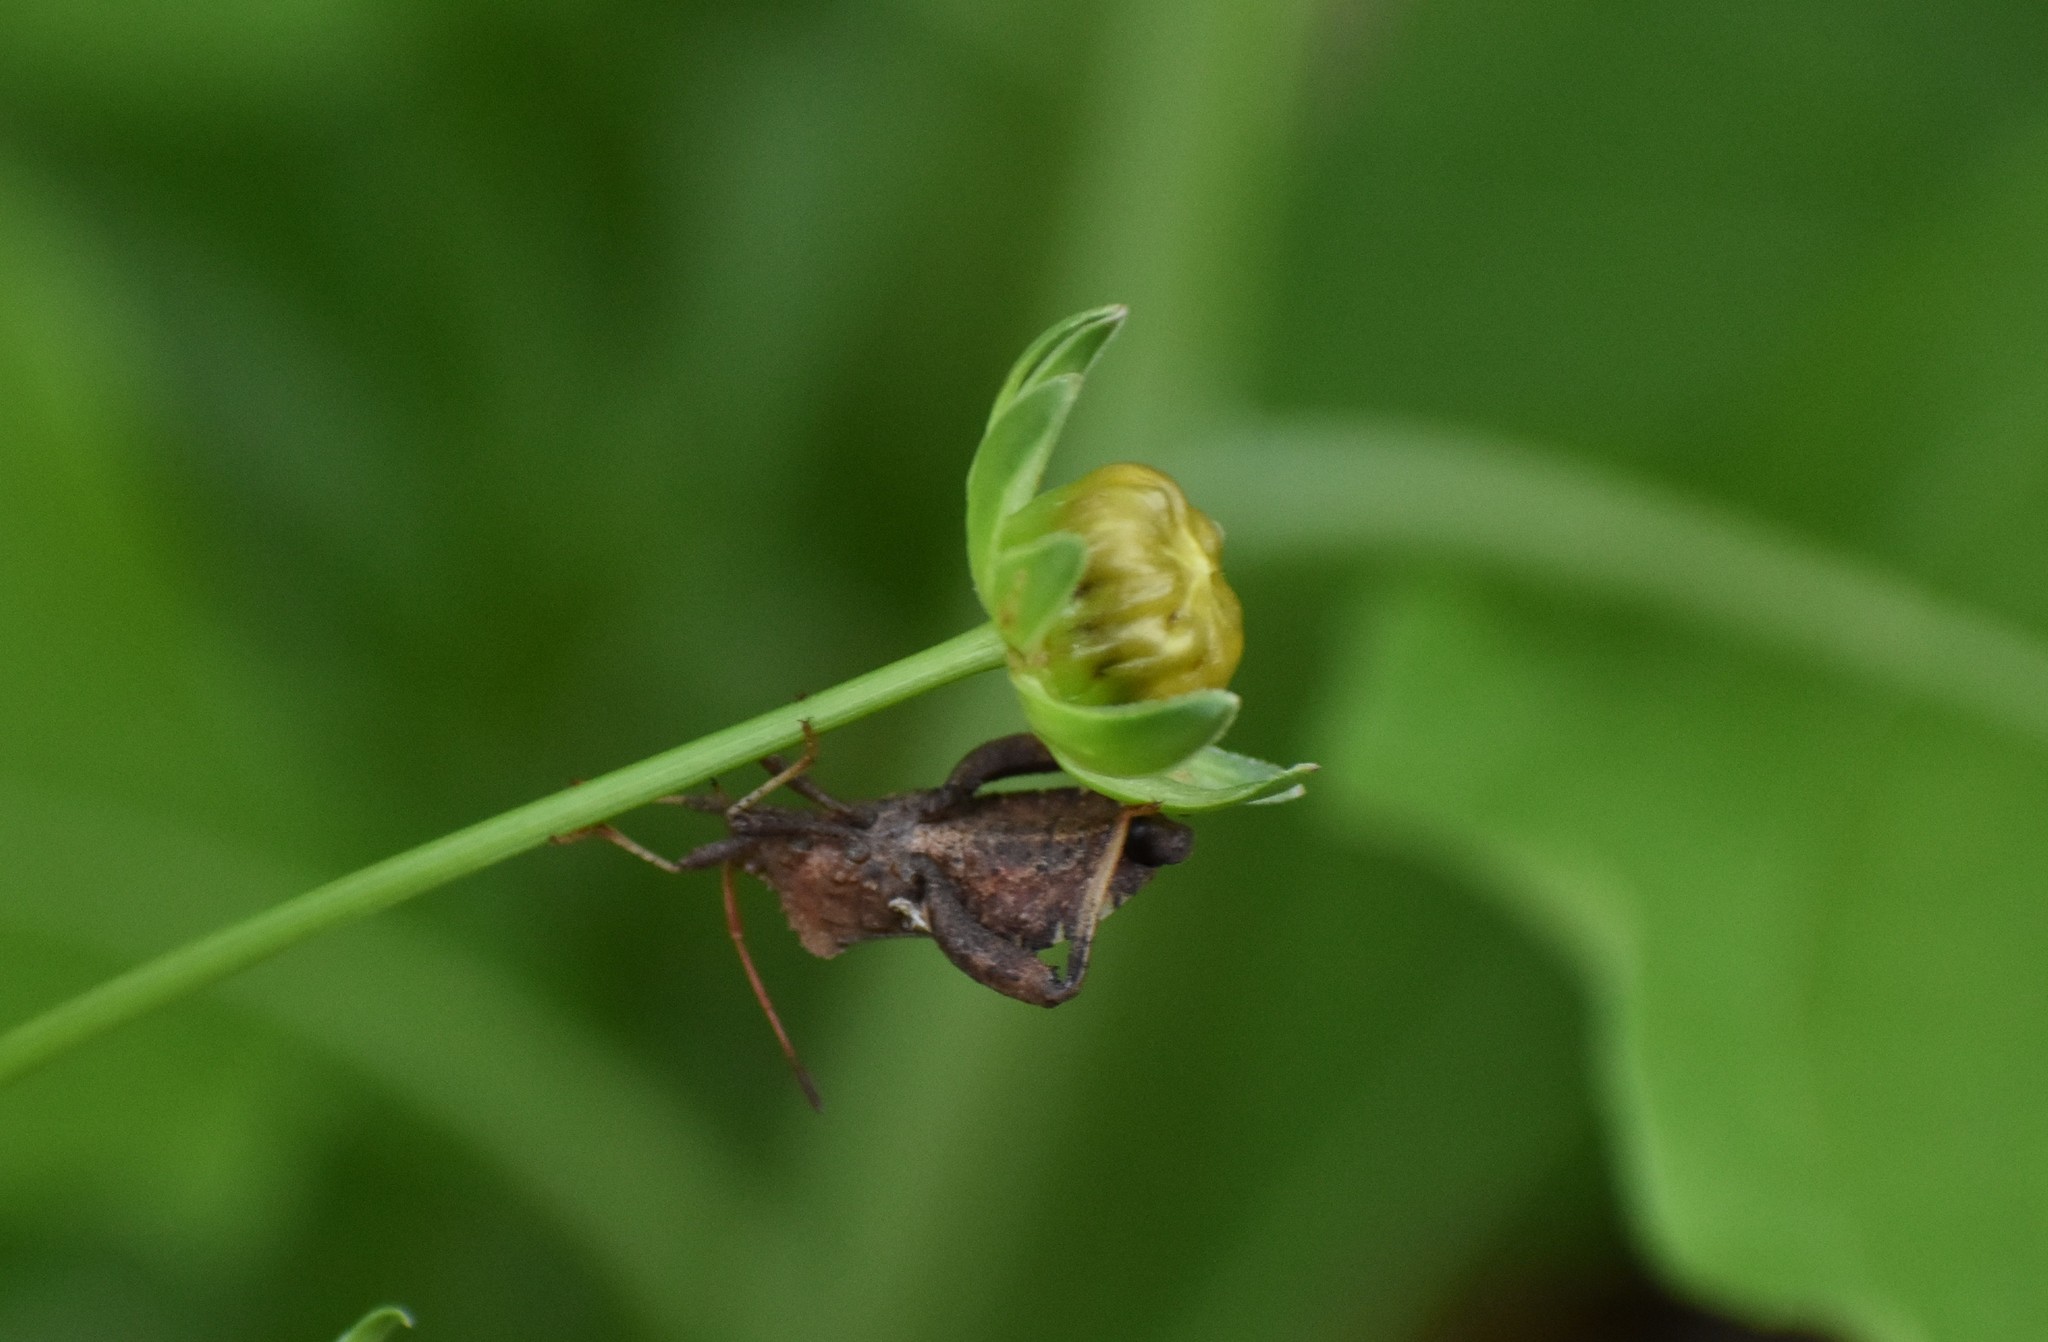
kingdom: Animalia
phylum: Arthropoda
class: Insecta
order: Hemiptera
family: Coreidae
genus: Euthochtha
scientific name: Euthochtha galeator
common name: Helmeted squash bug
